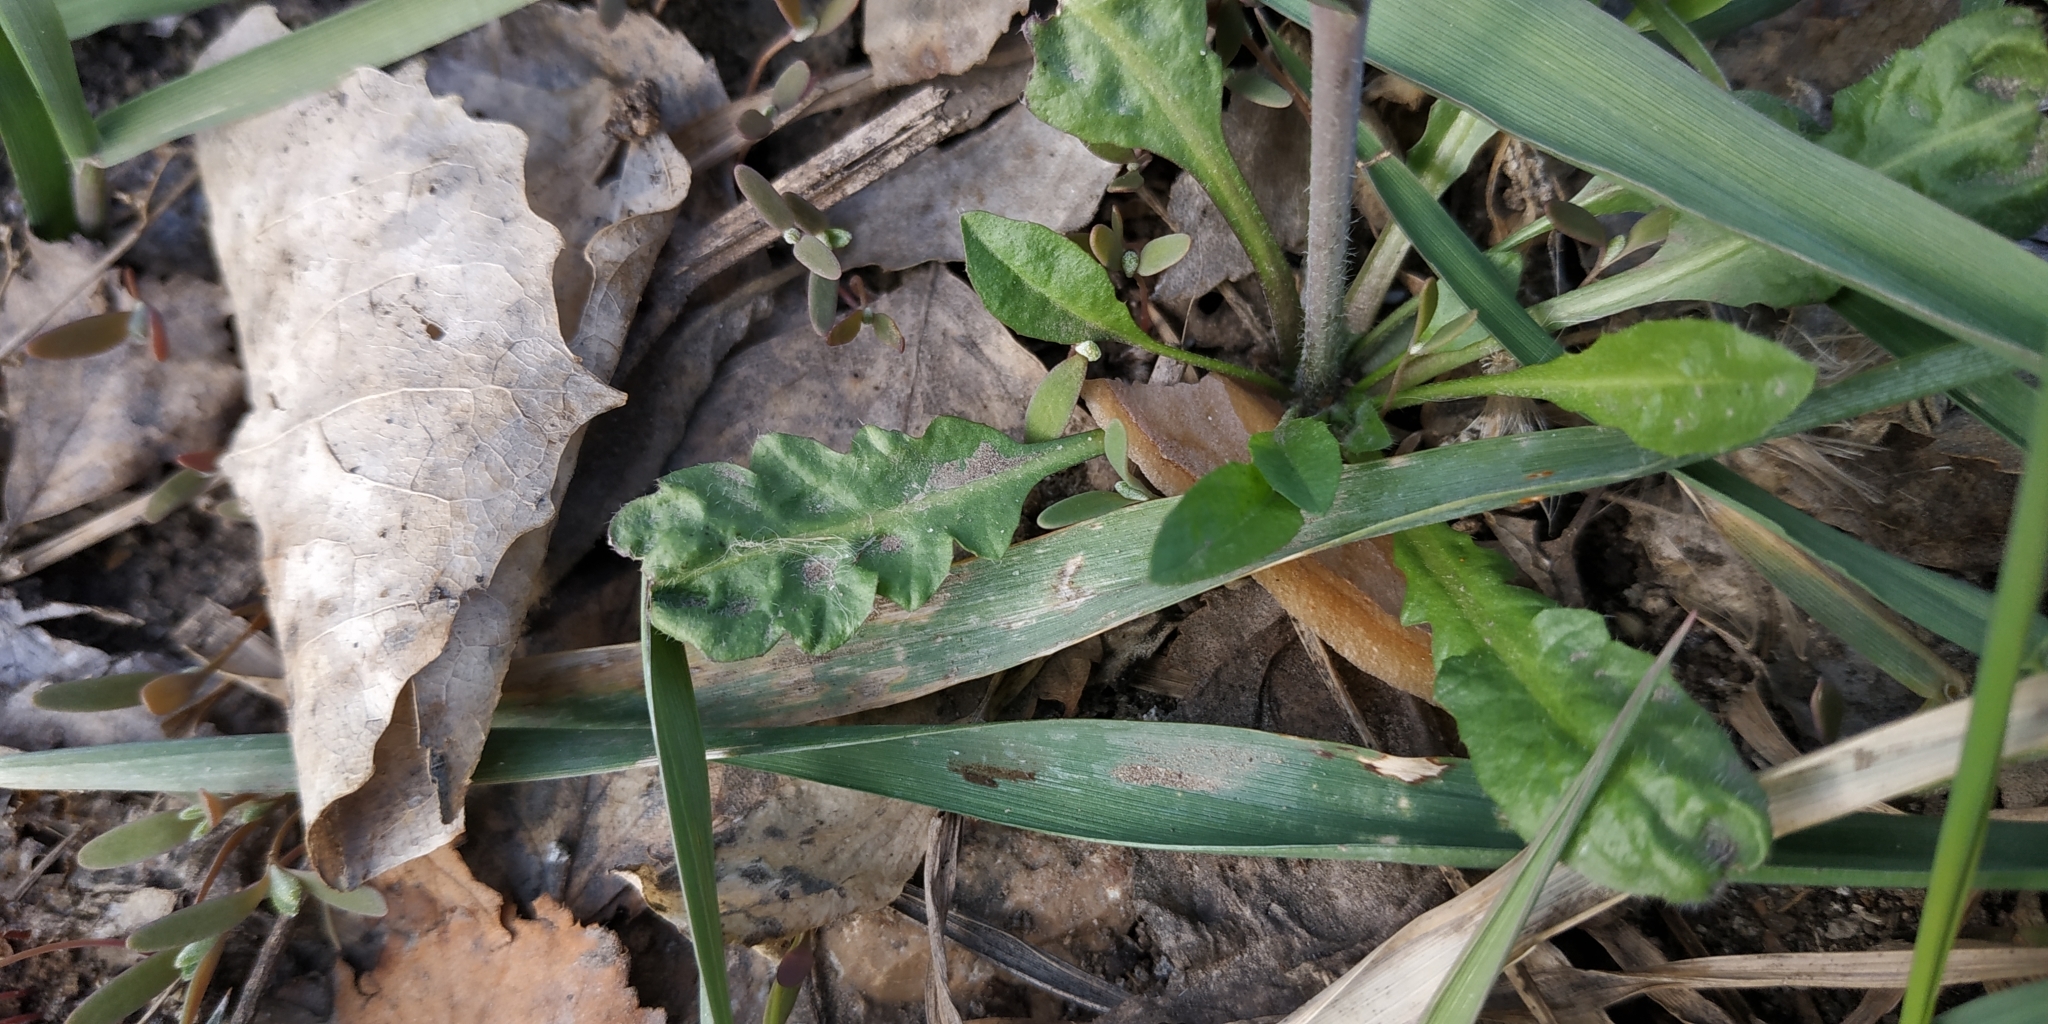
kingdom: Plantae
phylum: Tracheophyta
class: Magnoliopsida
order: Brassicales
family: Brassicaceae
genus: Capsella
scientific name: Capsella bursa-pastoris
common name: Shepherd's purse
